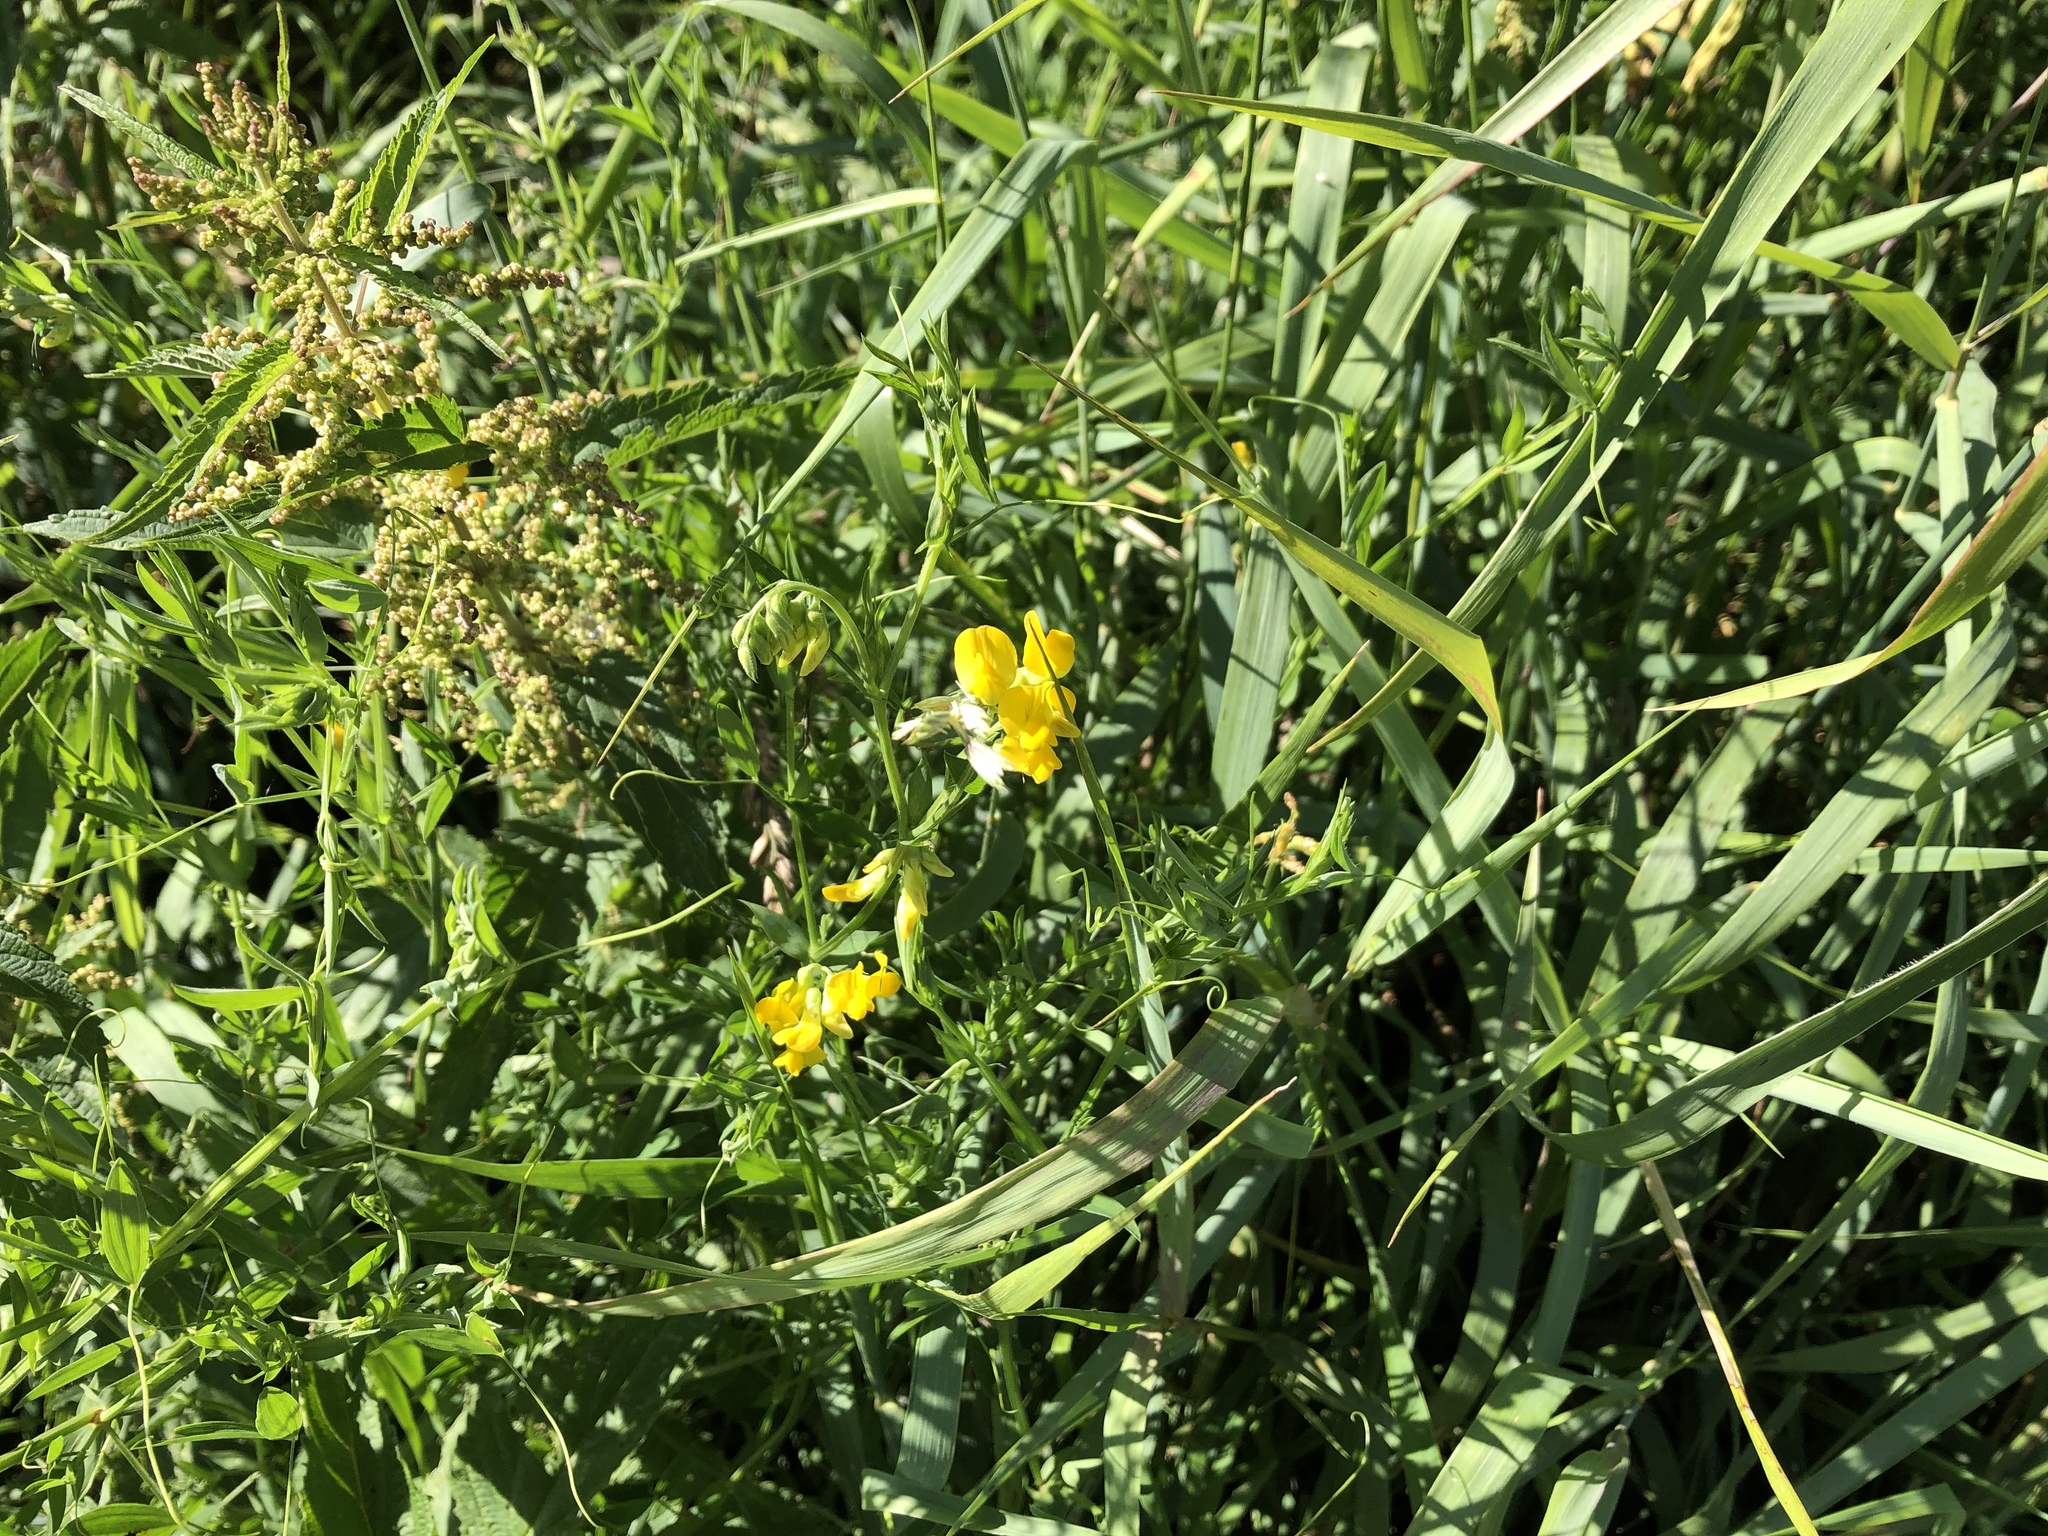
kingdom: Plantae
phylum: Tracheophyta
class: Magnoliopsida
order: Fabales
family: Fabaceae
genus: Lathyrus
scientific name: Lathyrus pratensis
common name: Meadow vetchling
